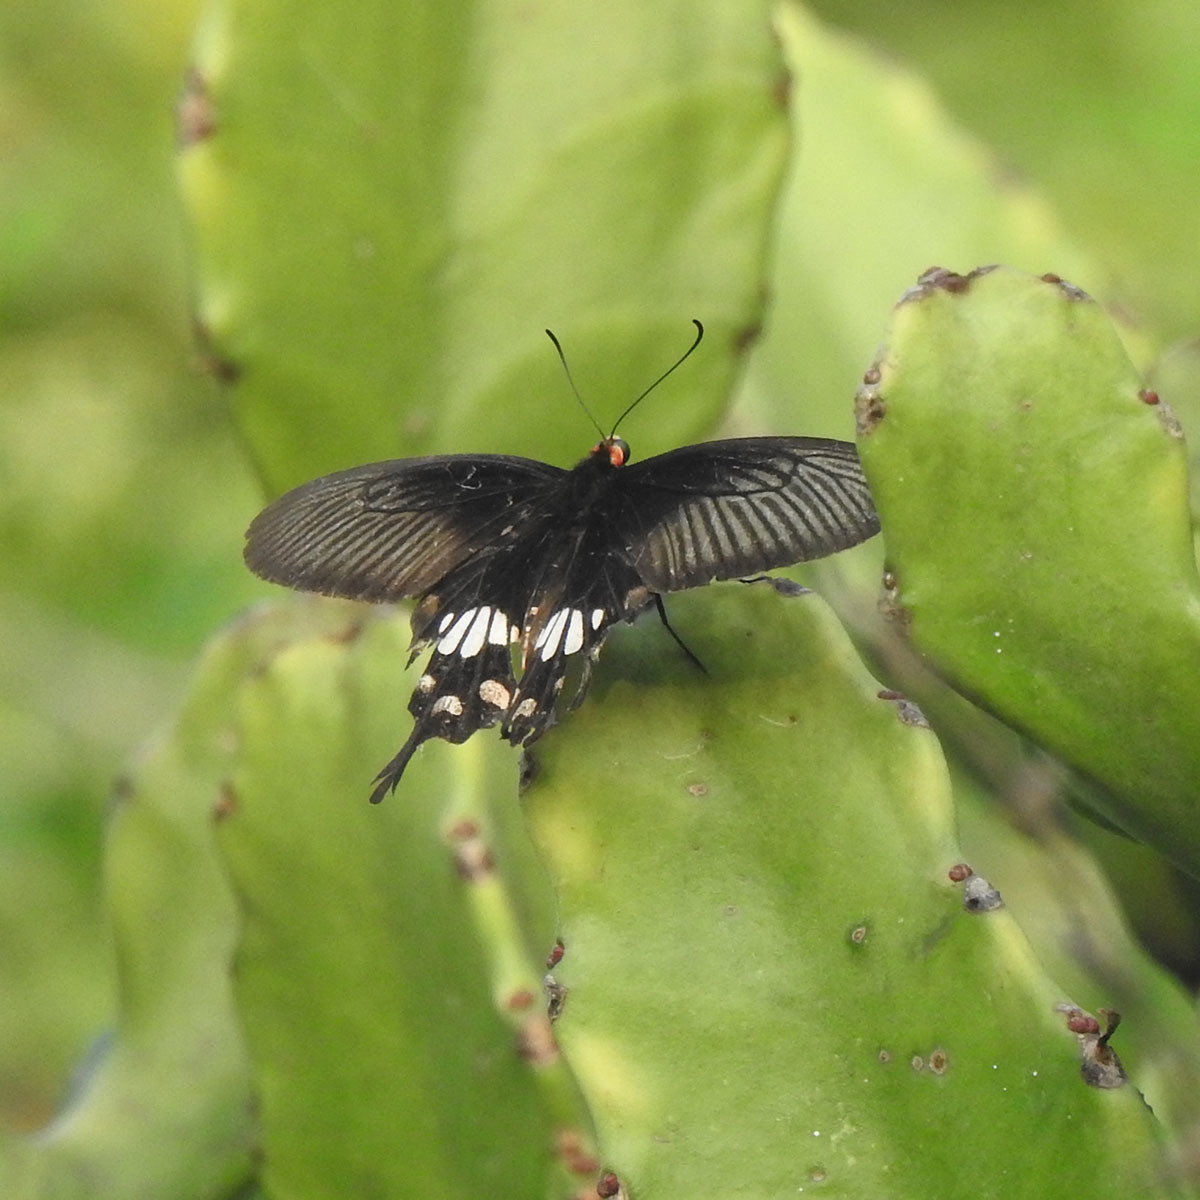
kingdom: Animalia
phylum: Arthropoda
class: Insecta
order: Lepidoptera
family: Papilionidae
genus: Pachliopta
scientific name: Pachliopta aristolochiae
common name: Common rose
